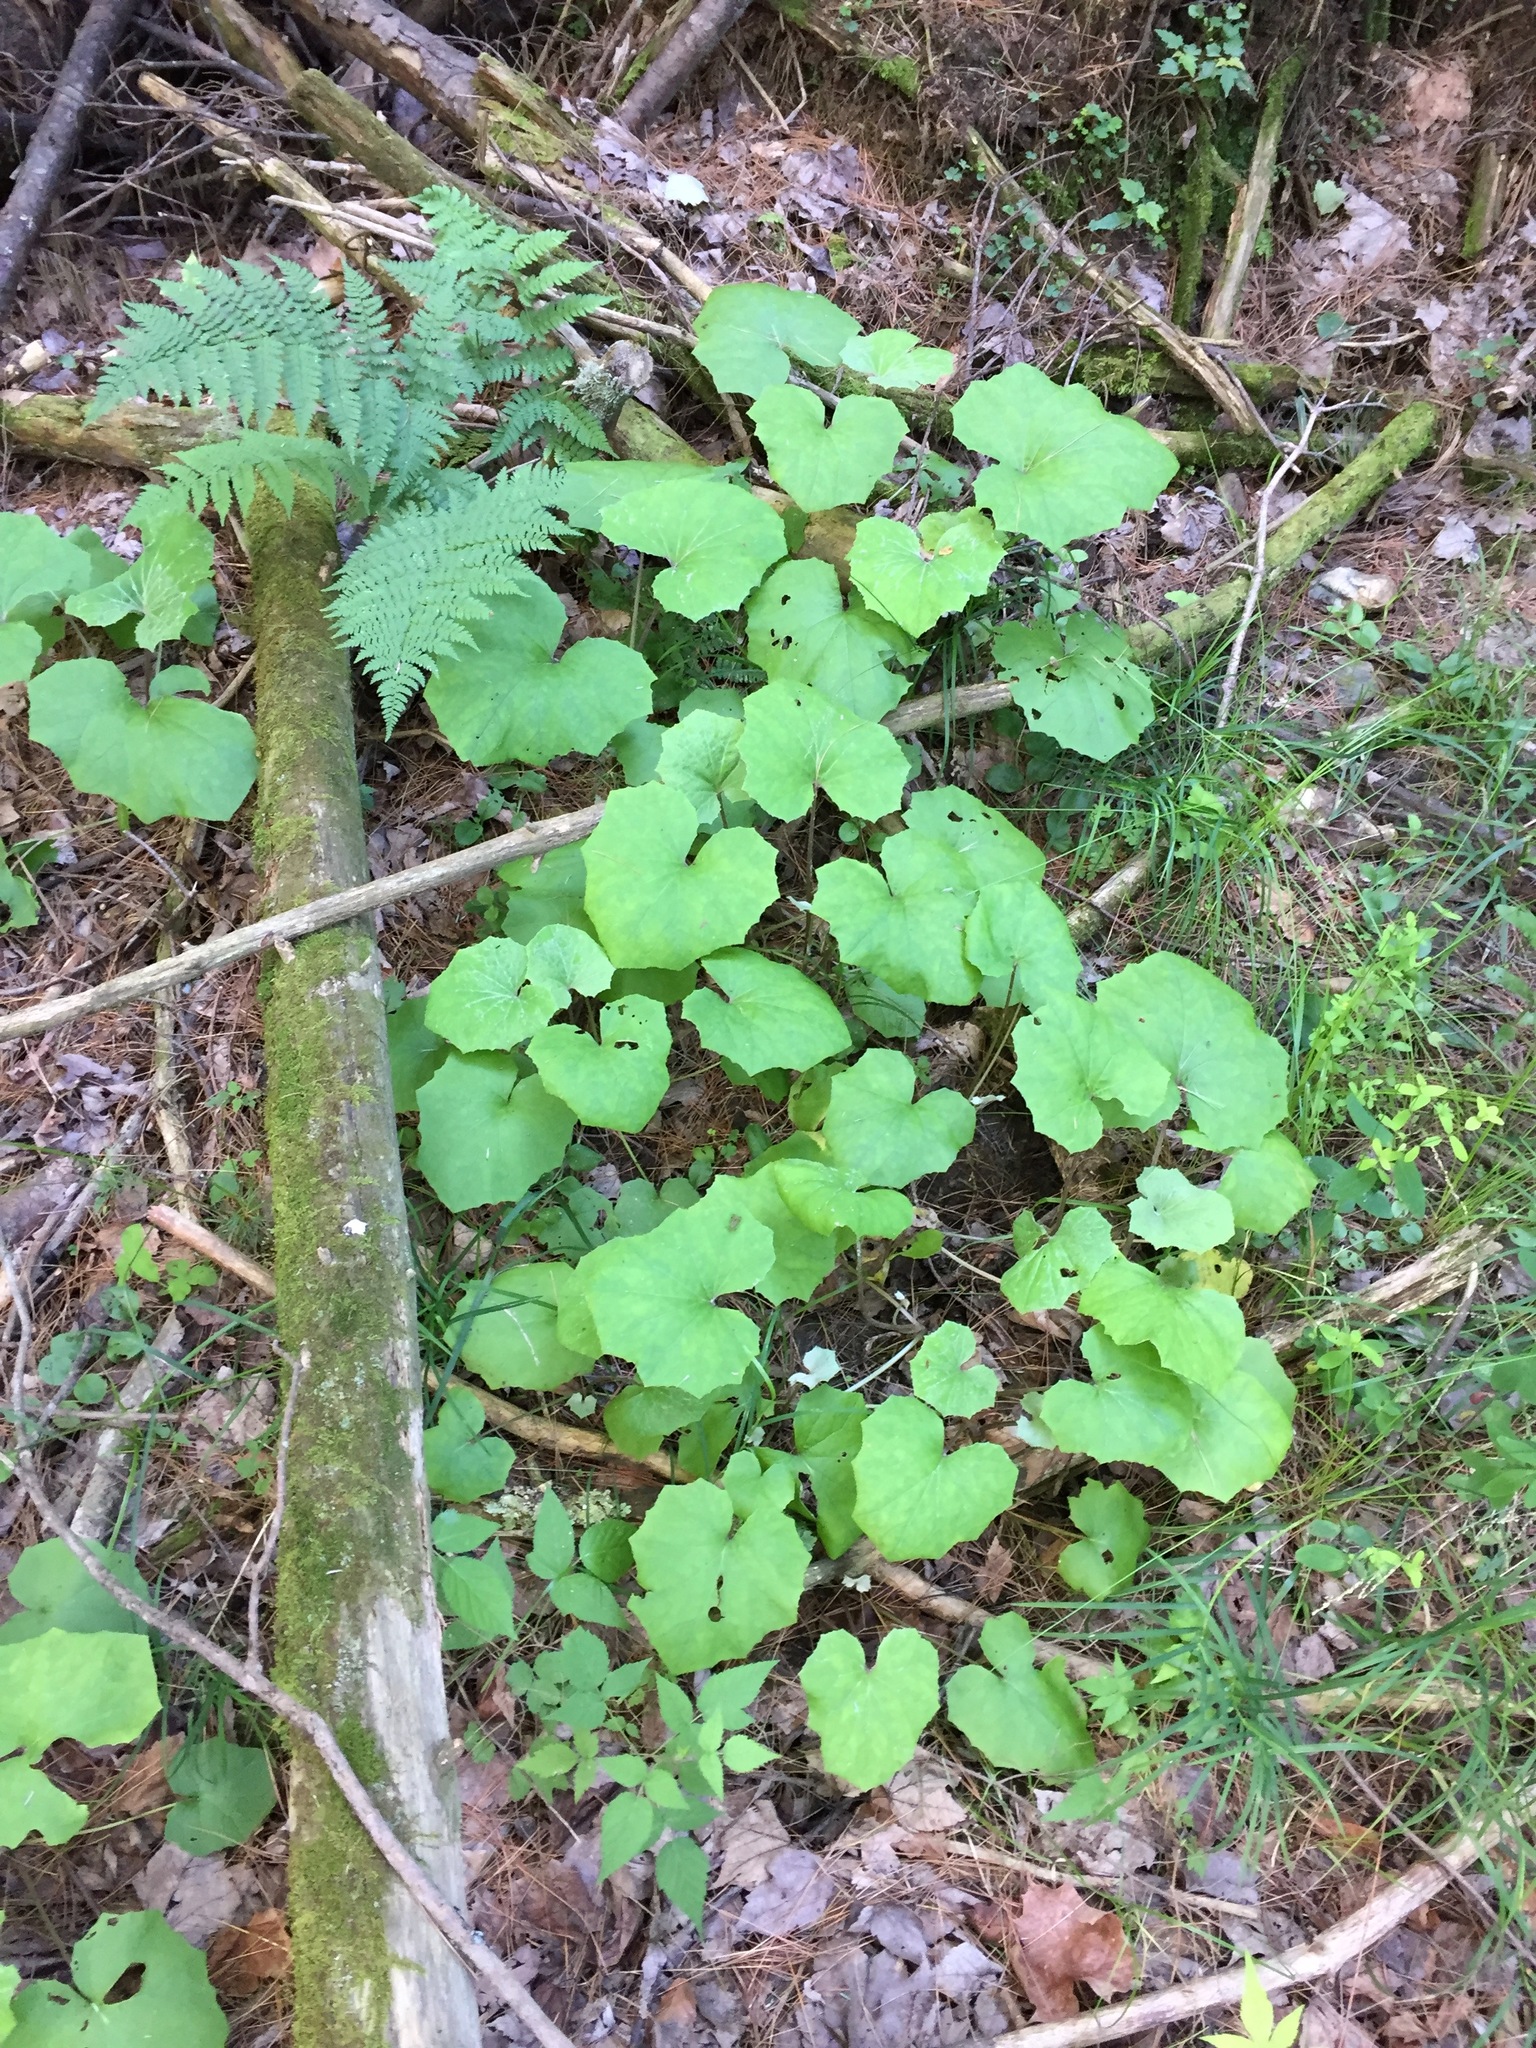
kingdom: Plantae
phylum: Tracheophyta
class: Magnoliopsida
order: Asterales
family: Asteraceae
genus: Tussilago
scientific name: Tussilago farfara
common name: Coltsfoot
